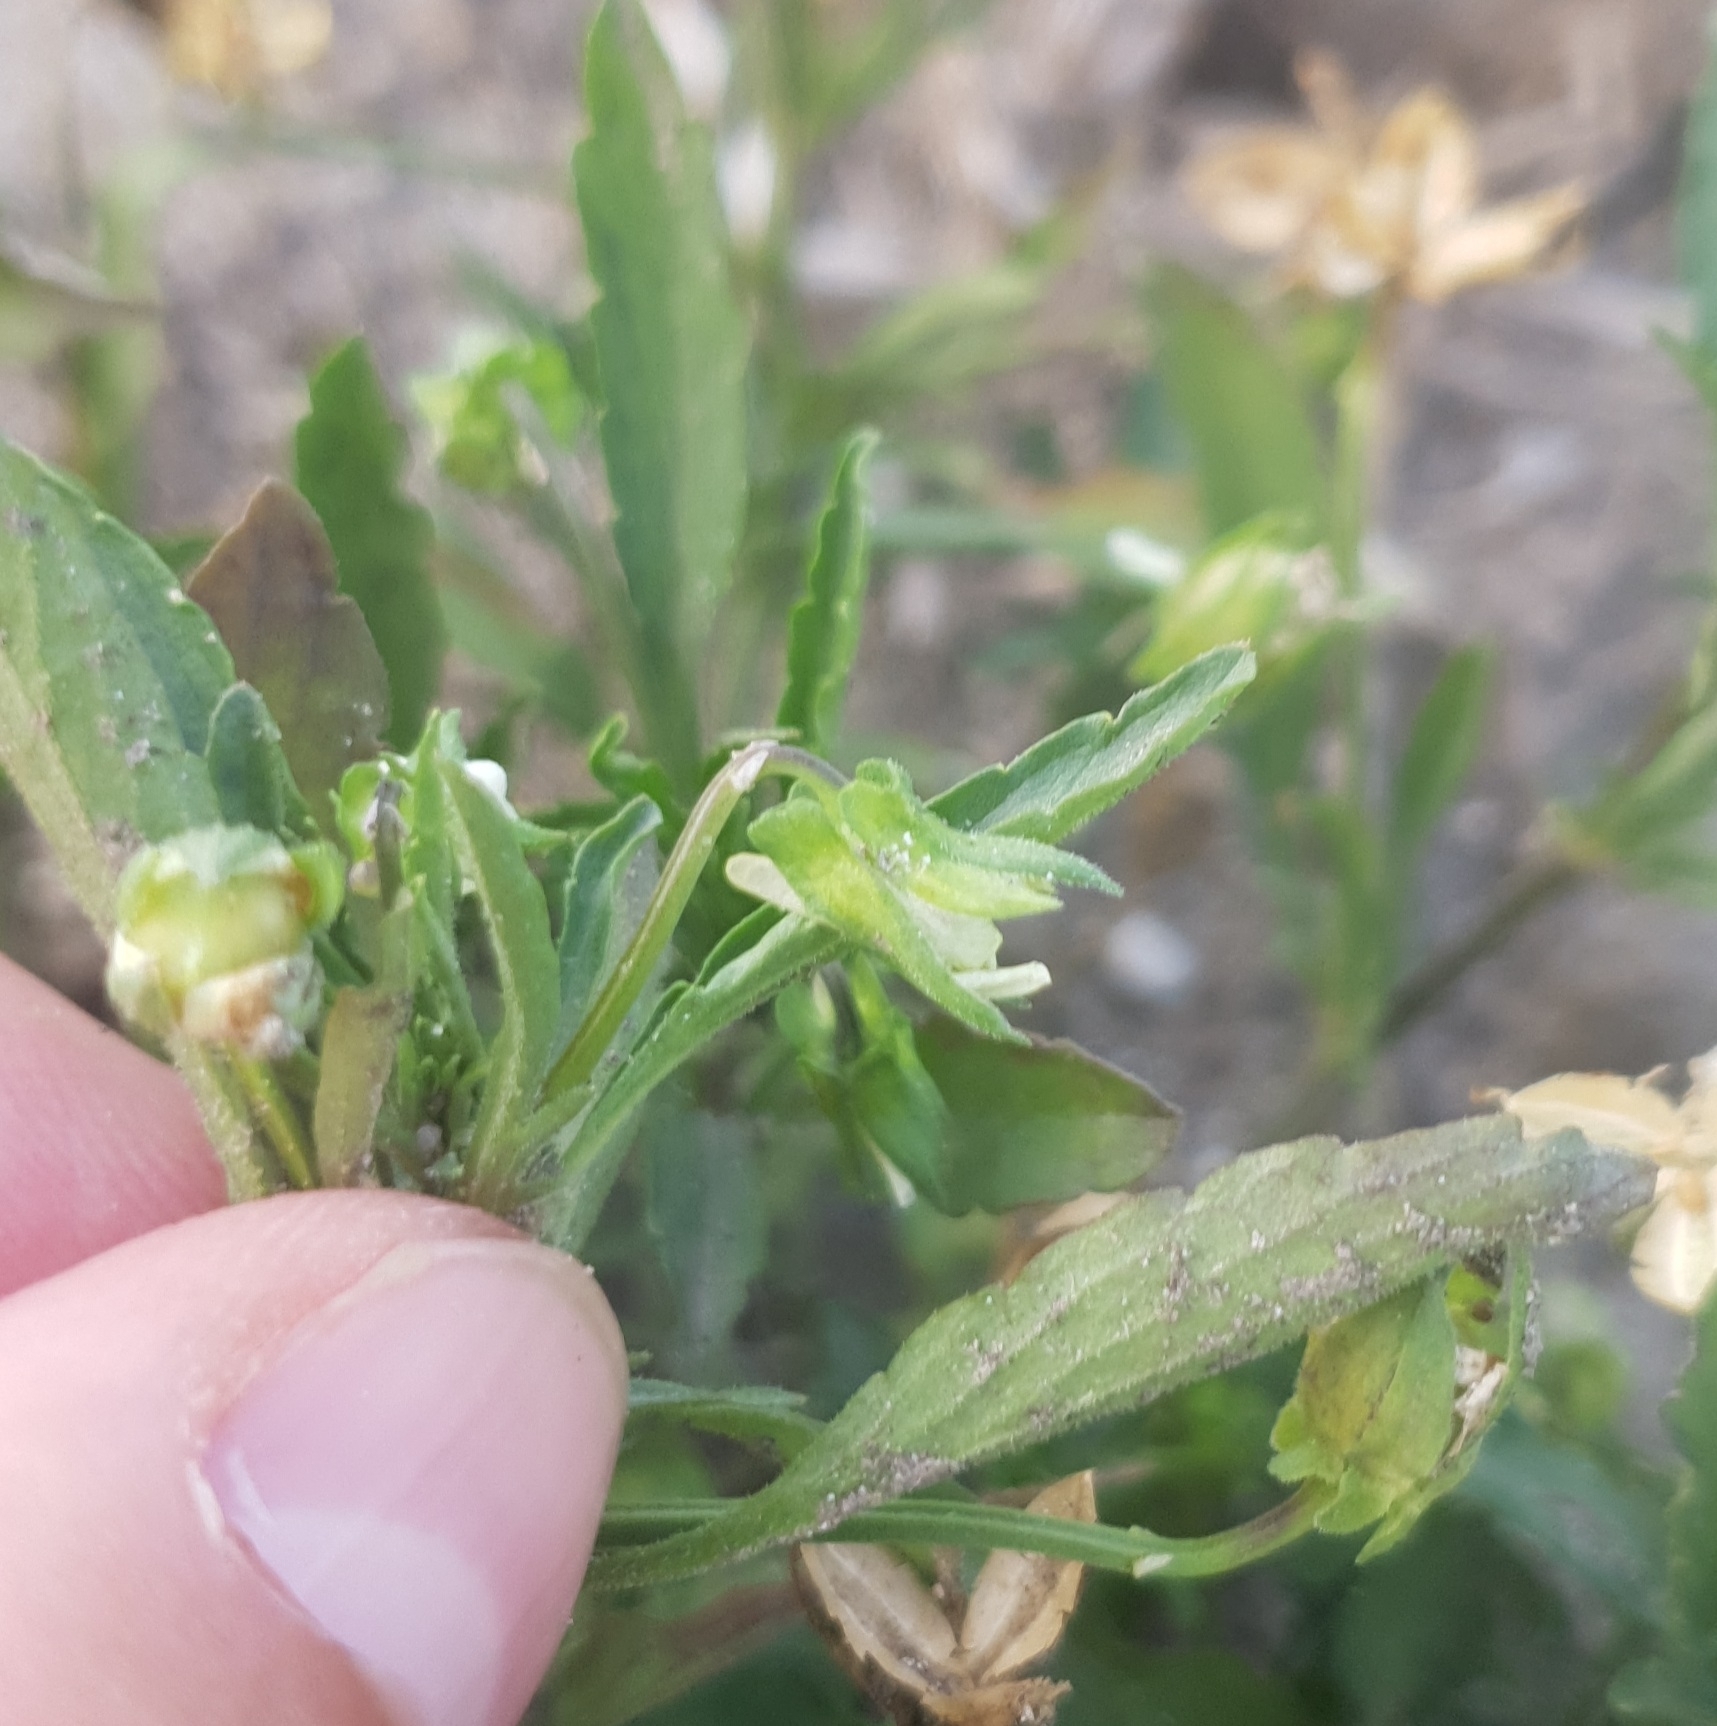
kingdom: Plantae
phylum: Tracheophyta
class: Magnoliopsida
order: Malpighiales
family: Violaceae
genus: Viola
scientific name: Viola arvensis
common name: Field pansy
